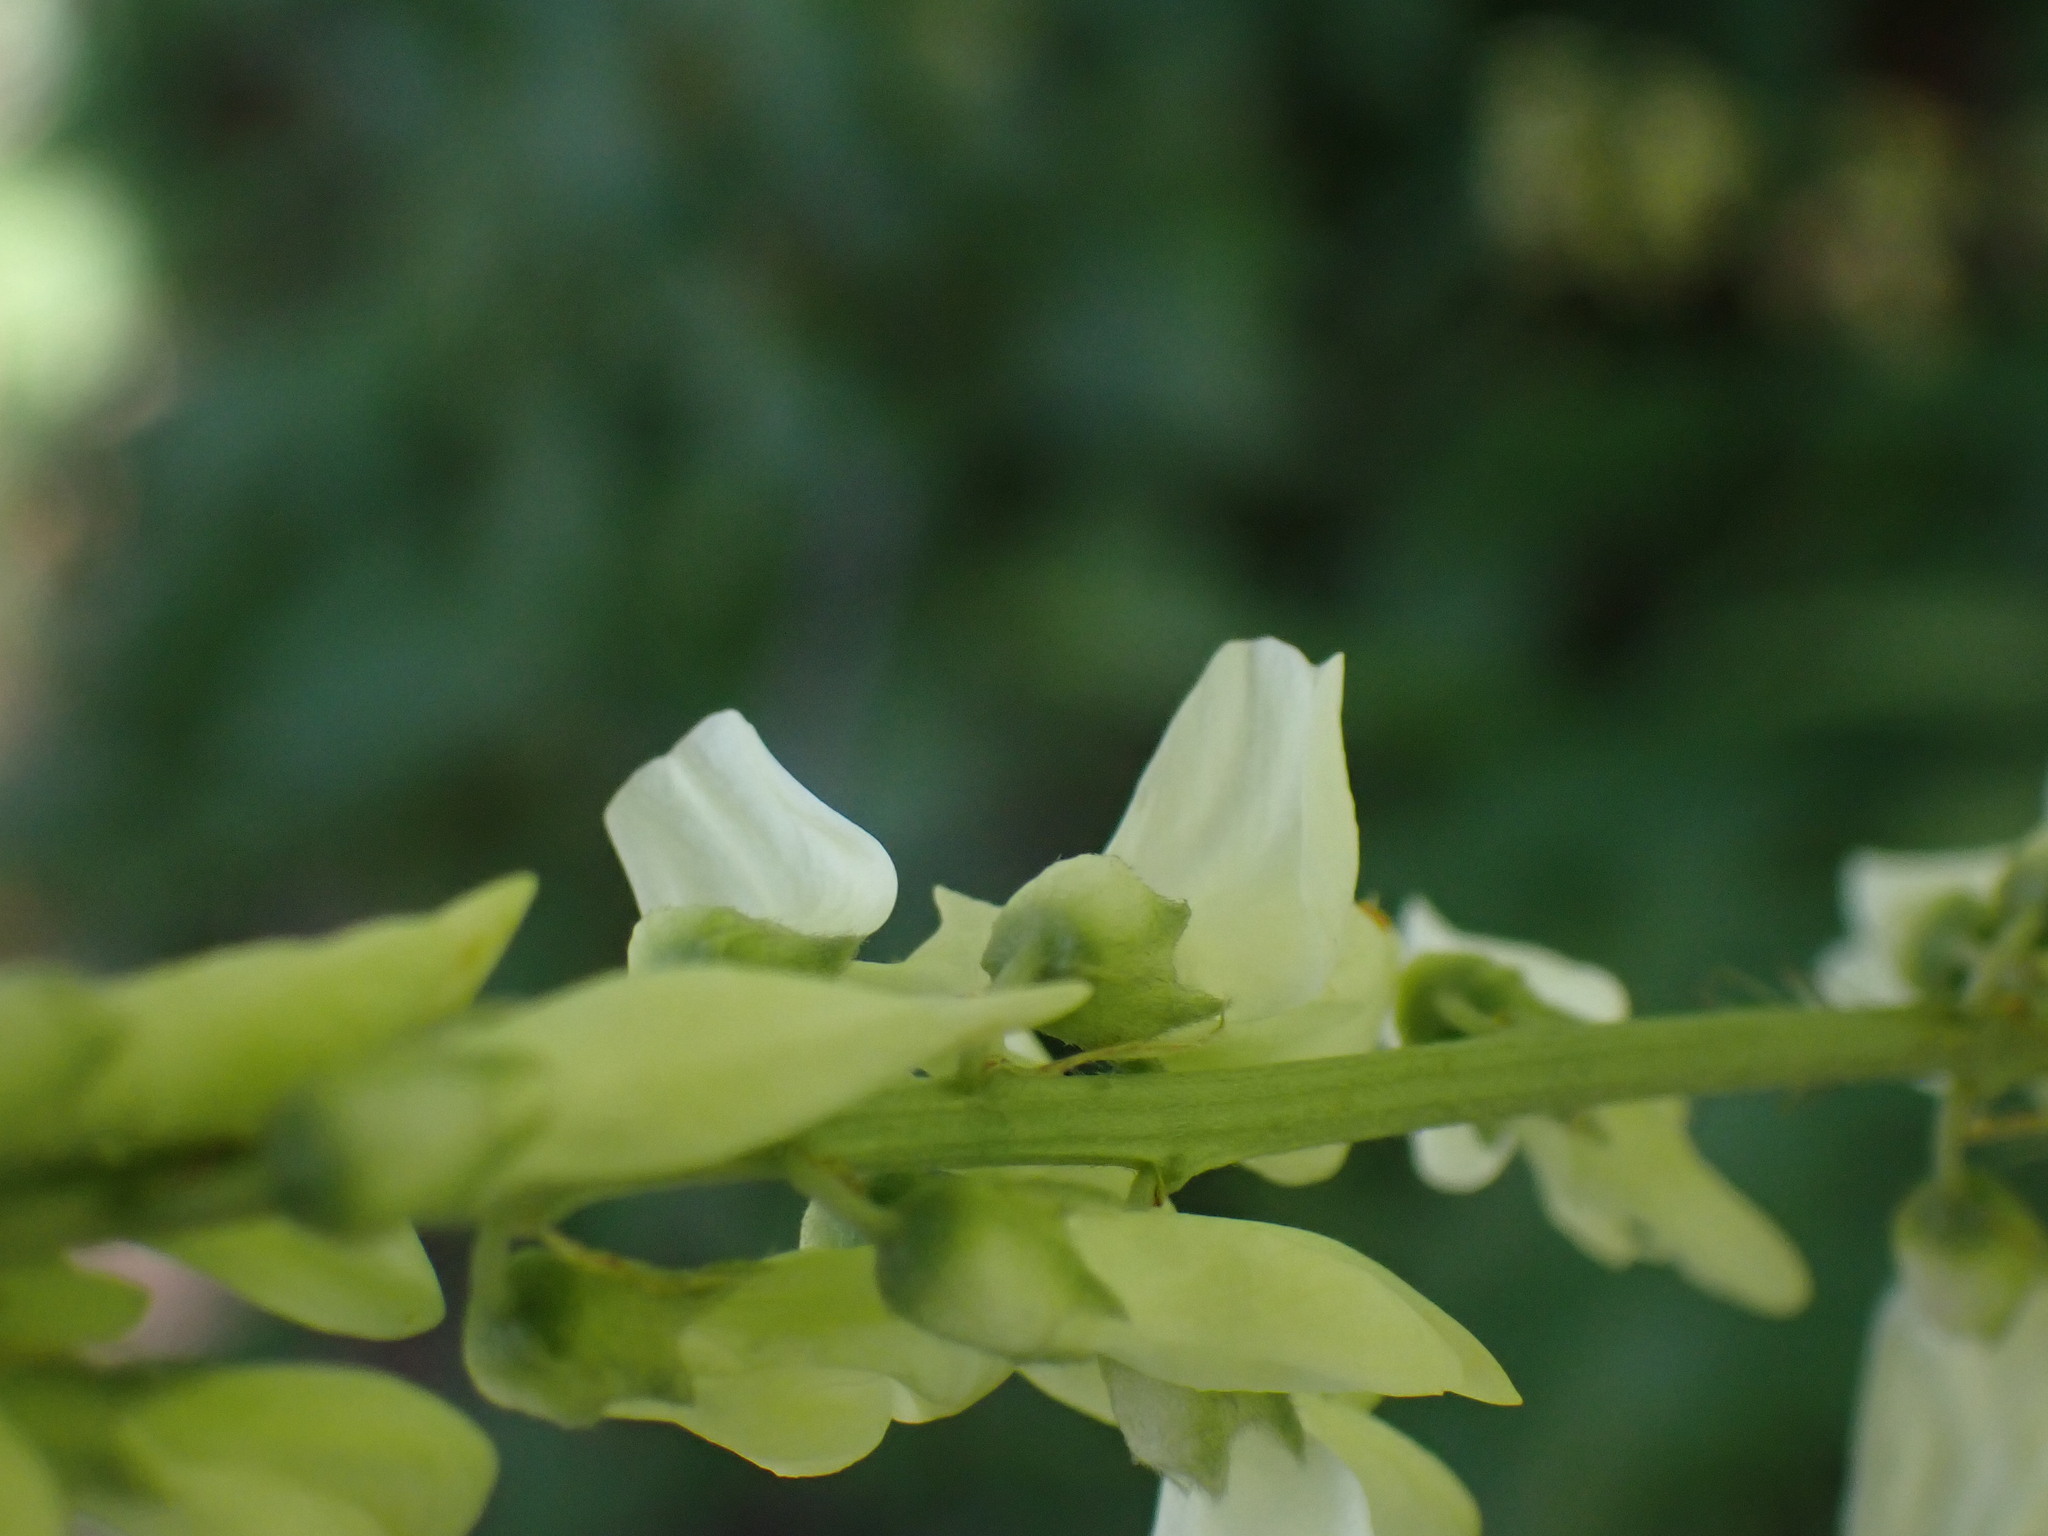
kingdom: Plantae
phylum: Tracheophyta
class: Magnoliopsida
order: Fabales
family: Fabaceae
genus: Hedysarum
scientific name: Hedysarum sulphurescens
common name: Sulphur hedysarum
